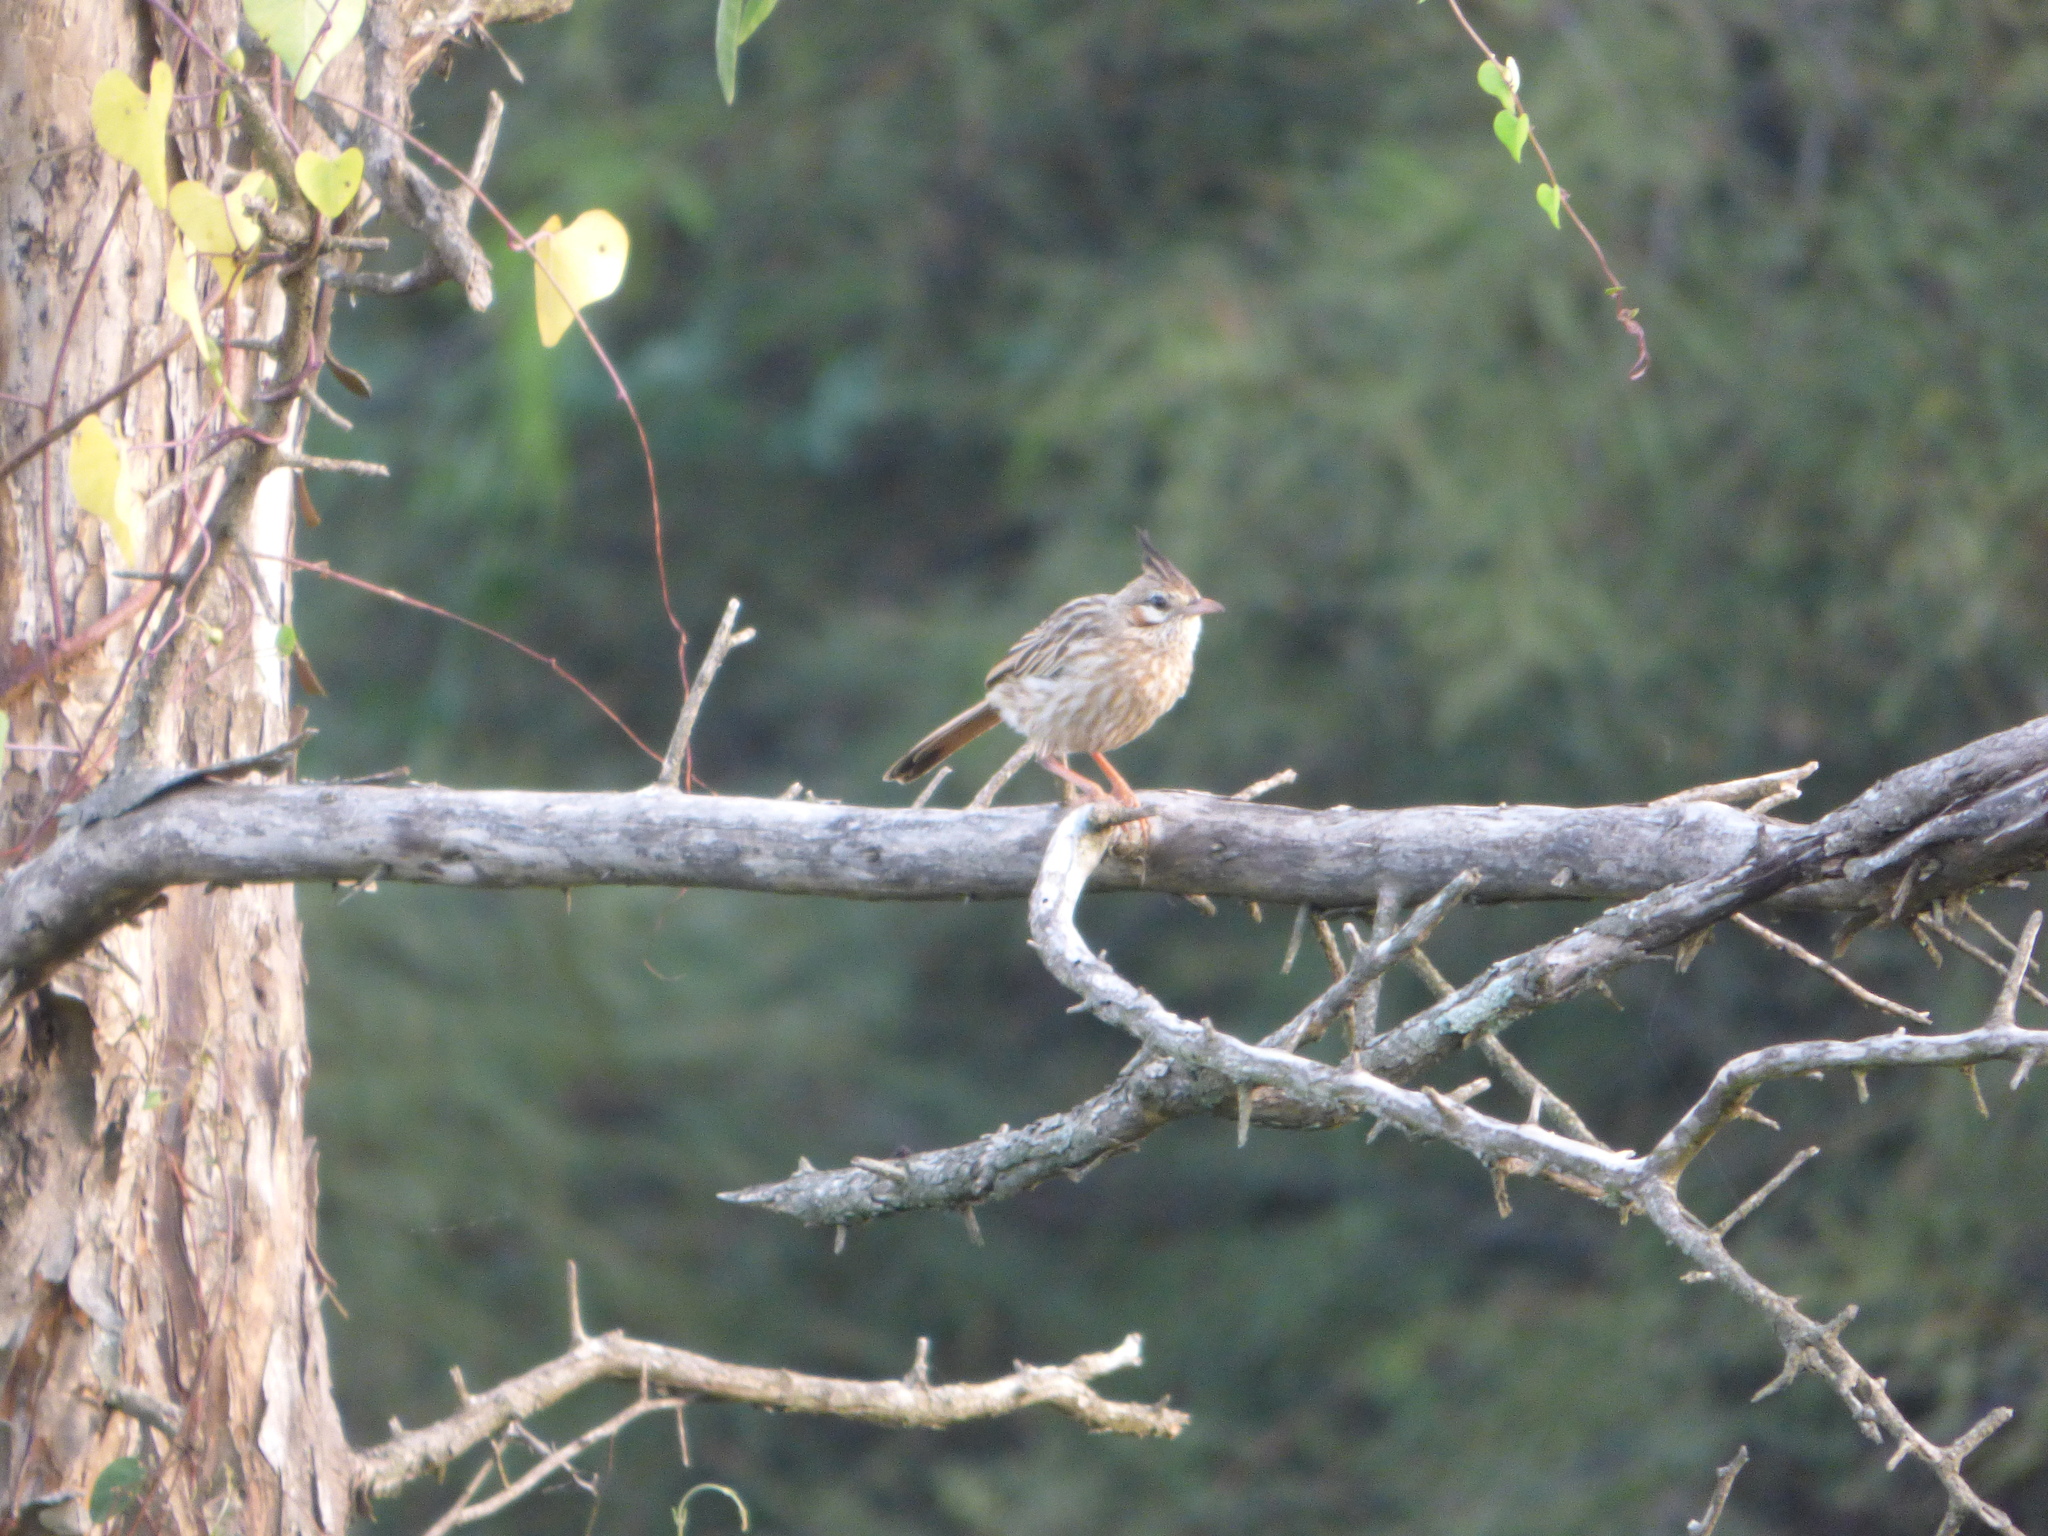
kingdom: Animalia
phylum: Chordata
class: Aves
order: Passeriformes
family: Furnariidae
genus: Coryphistera
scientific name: Coryphistera alaudina
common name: Lark-like brushrunner
